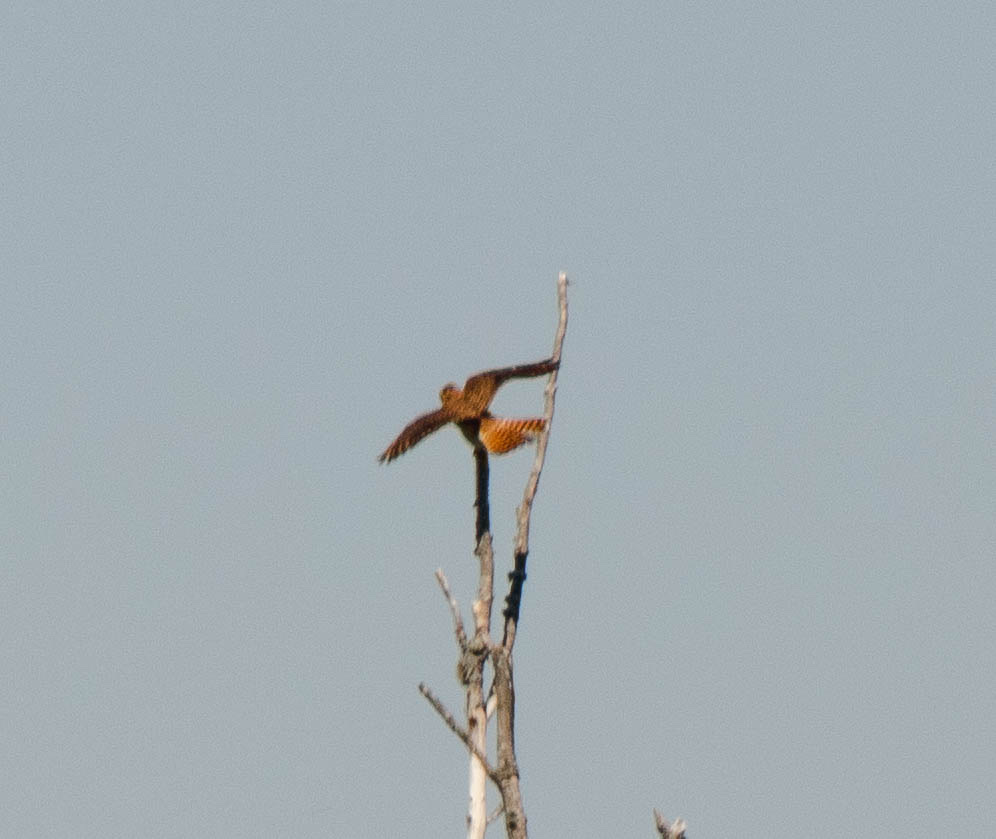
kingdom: Animalia
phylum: Chordata
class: Aves
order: Falconiformes
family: Falconidae
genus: Falco
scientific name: Falco sparverius
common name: American kestrel
